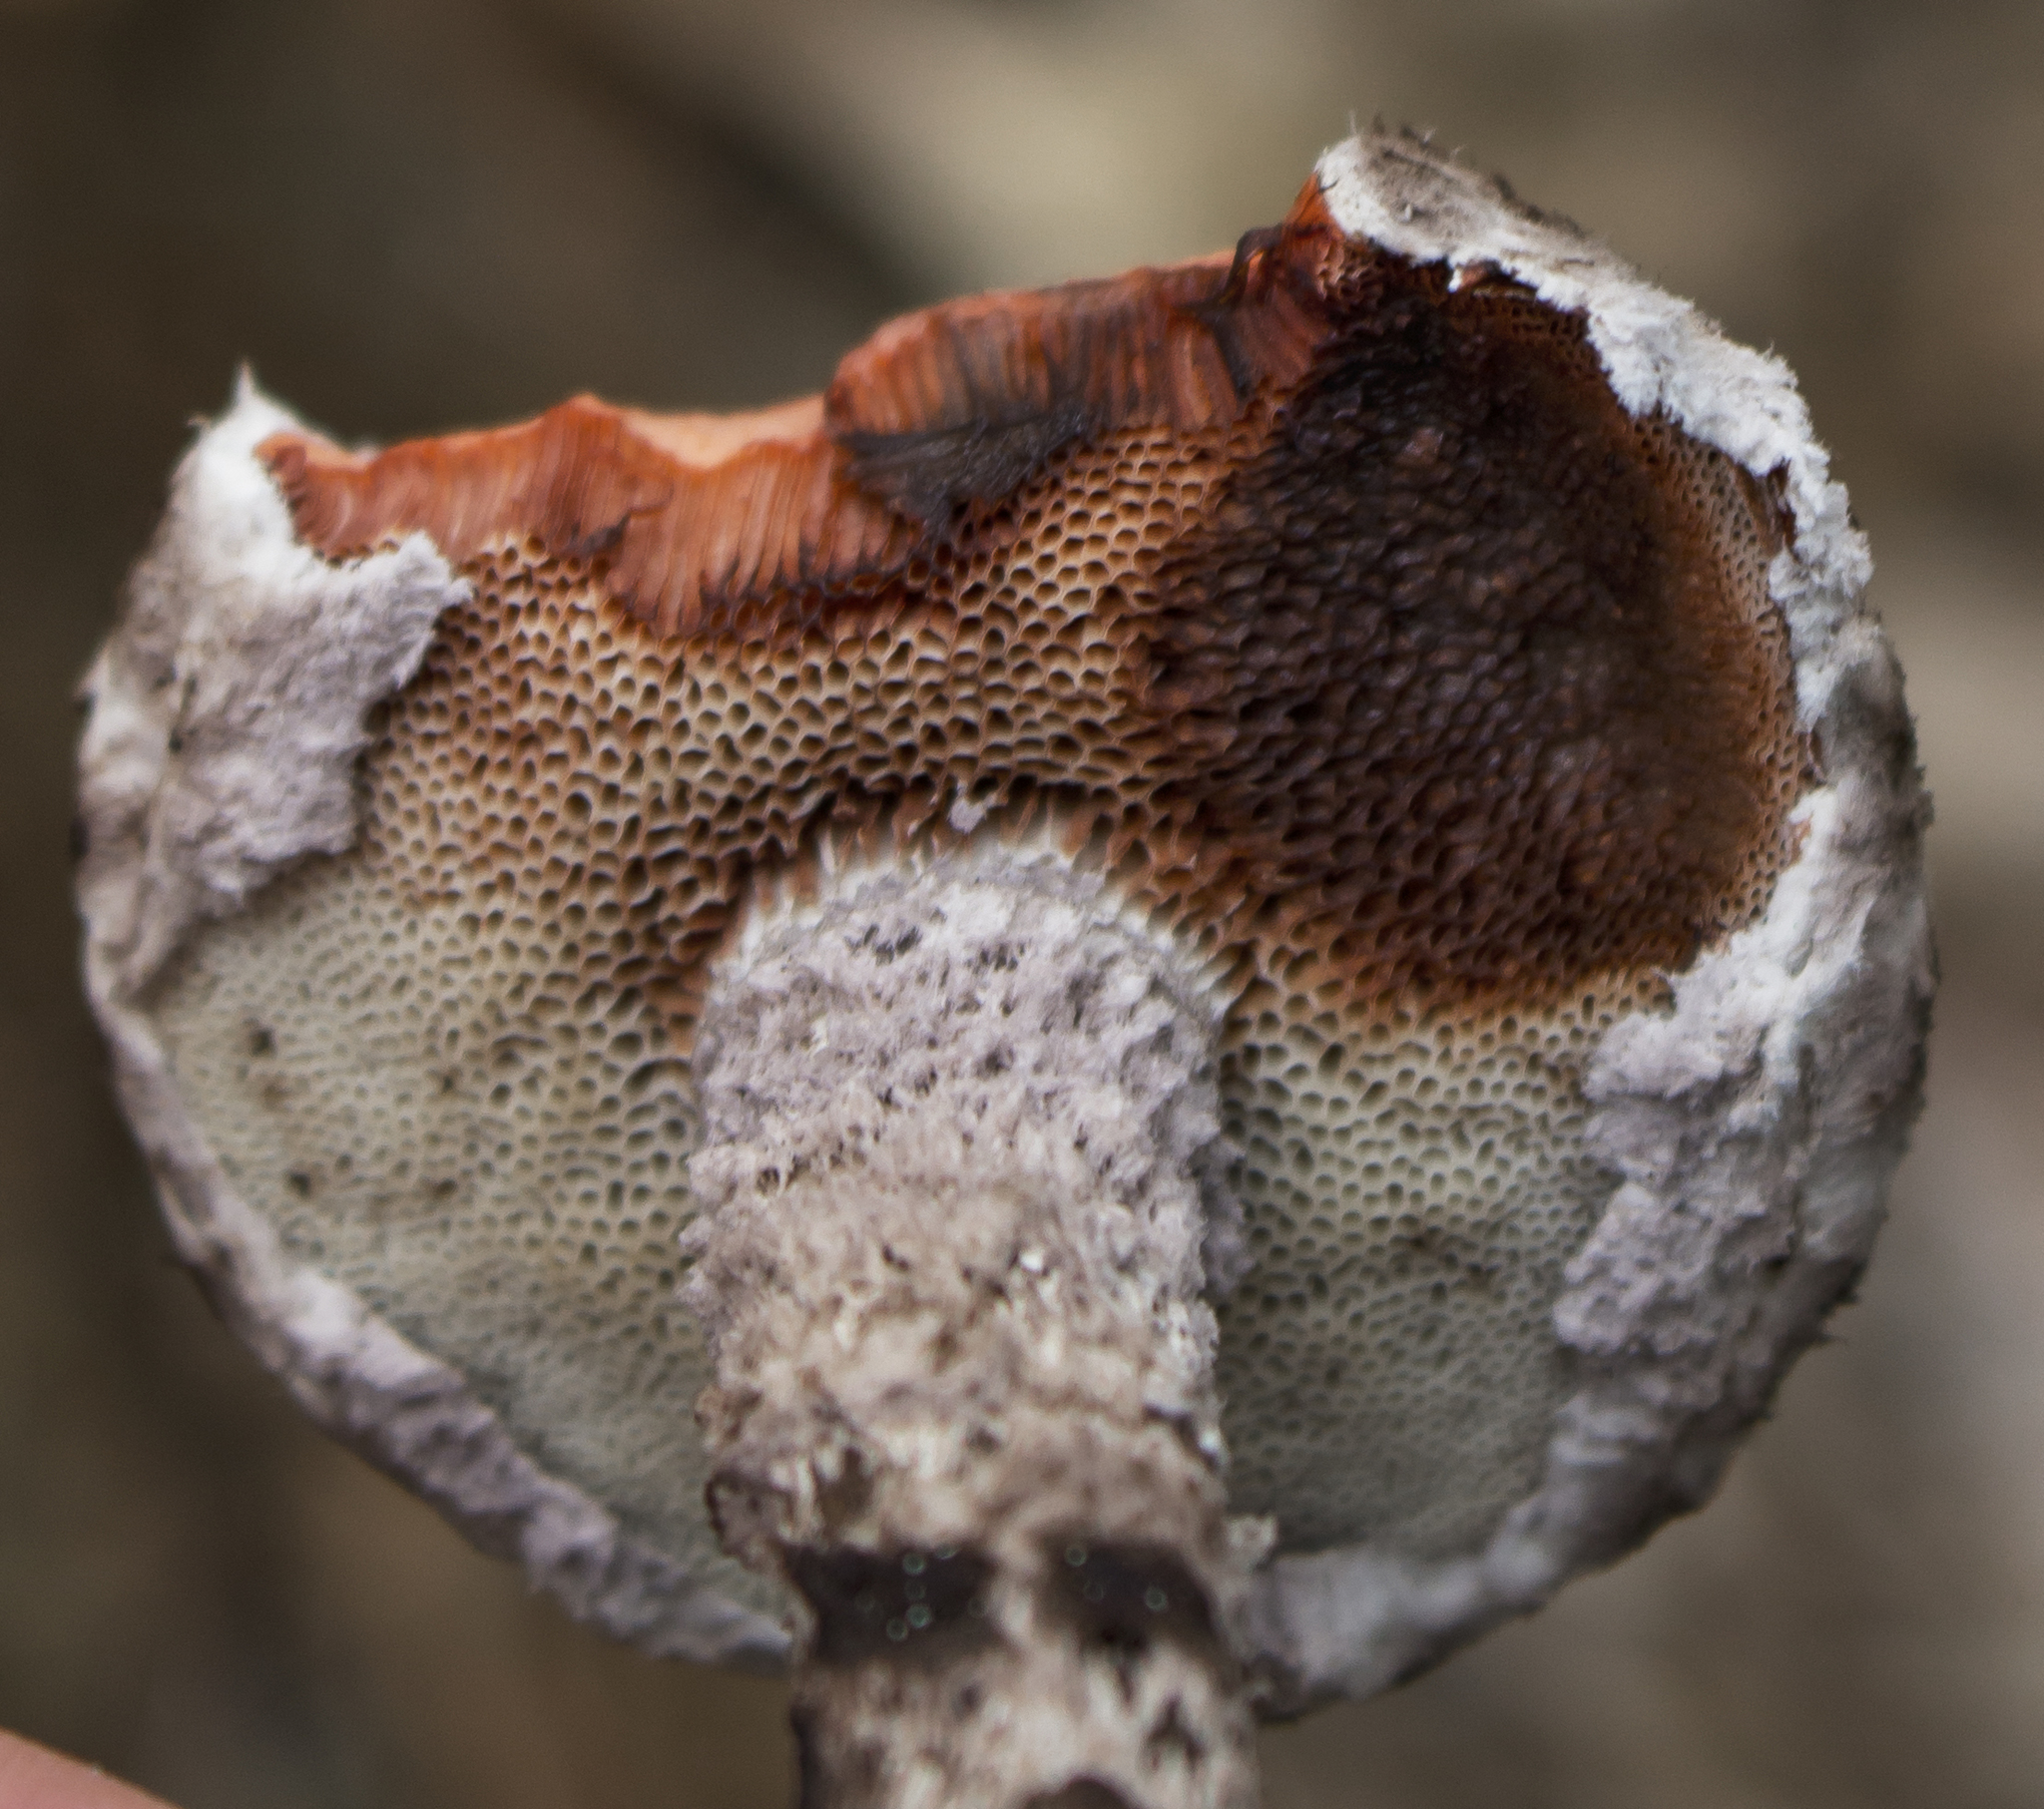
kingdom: Fungi
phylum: Basidiomycota
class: Agaricomycetes
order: Boletales
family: Boletaceae
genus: Strobilomyces
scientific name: Strobilomyces strobilaceus
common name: Old man of the woods
